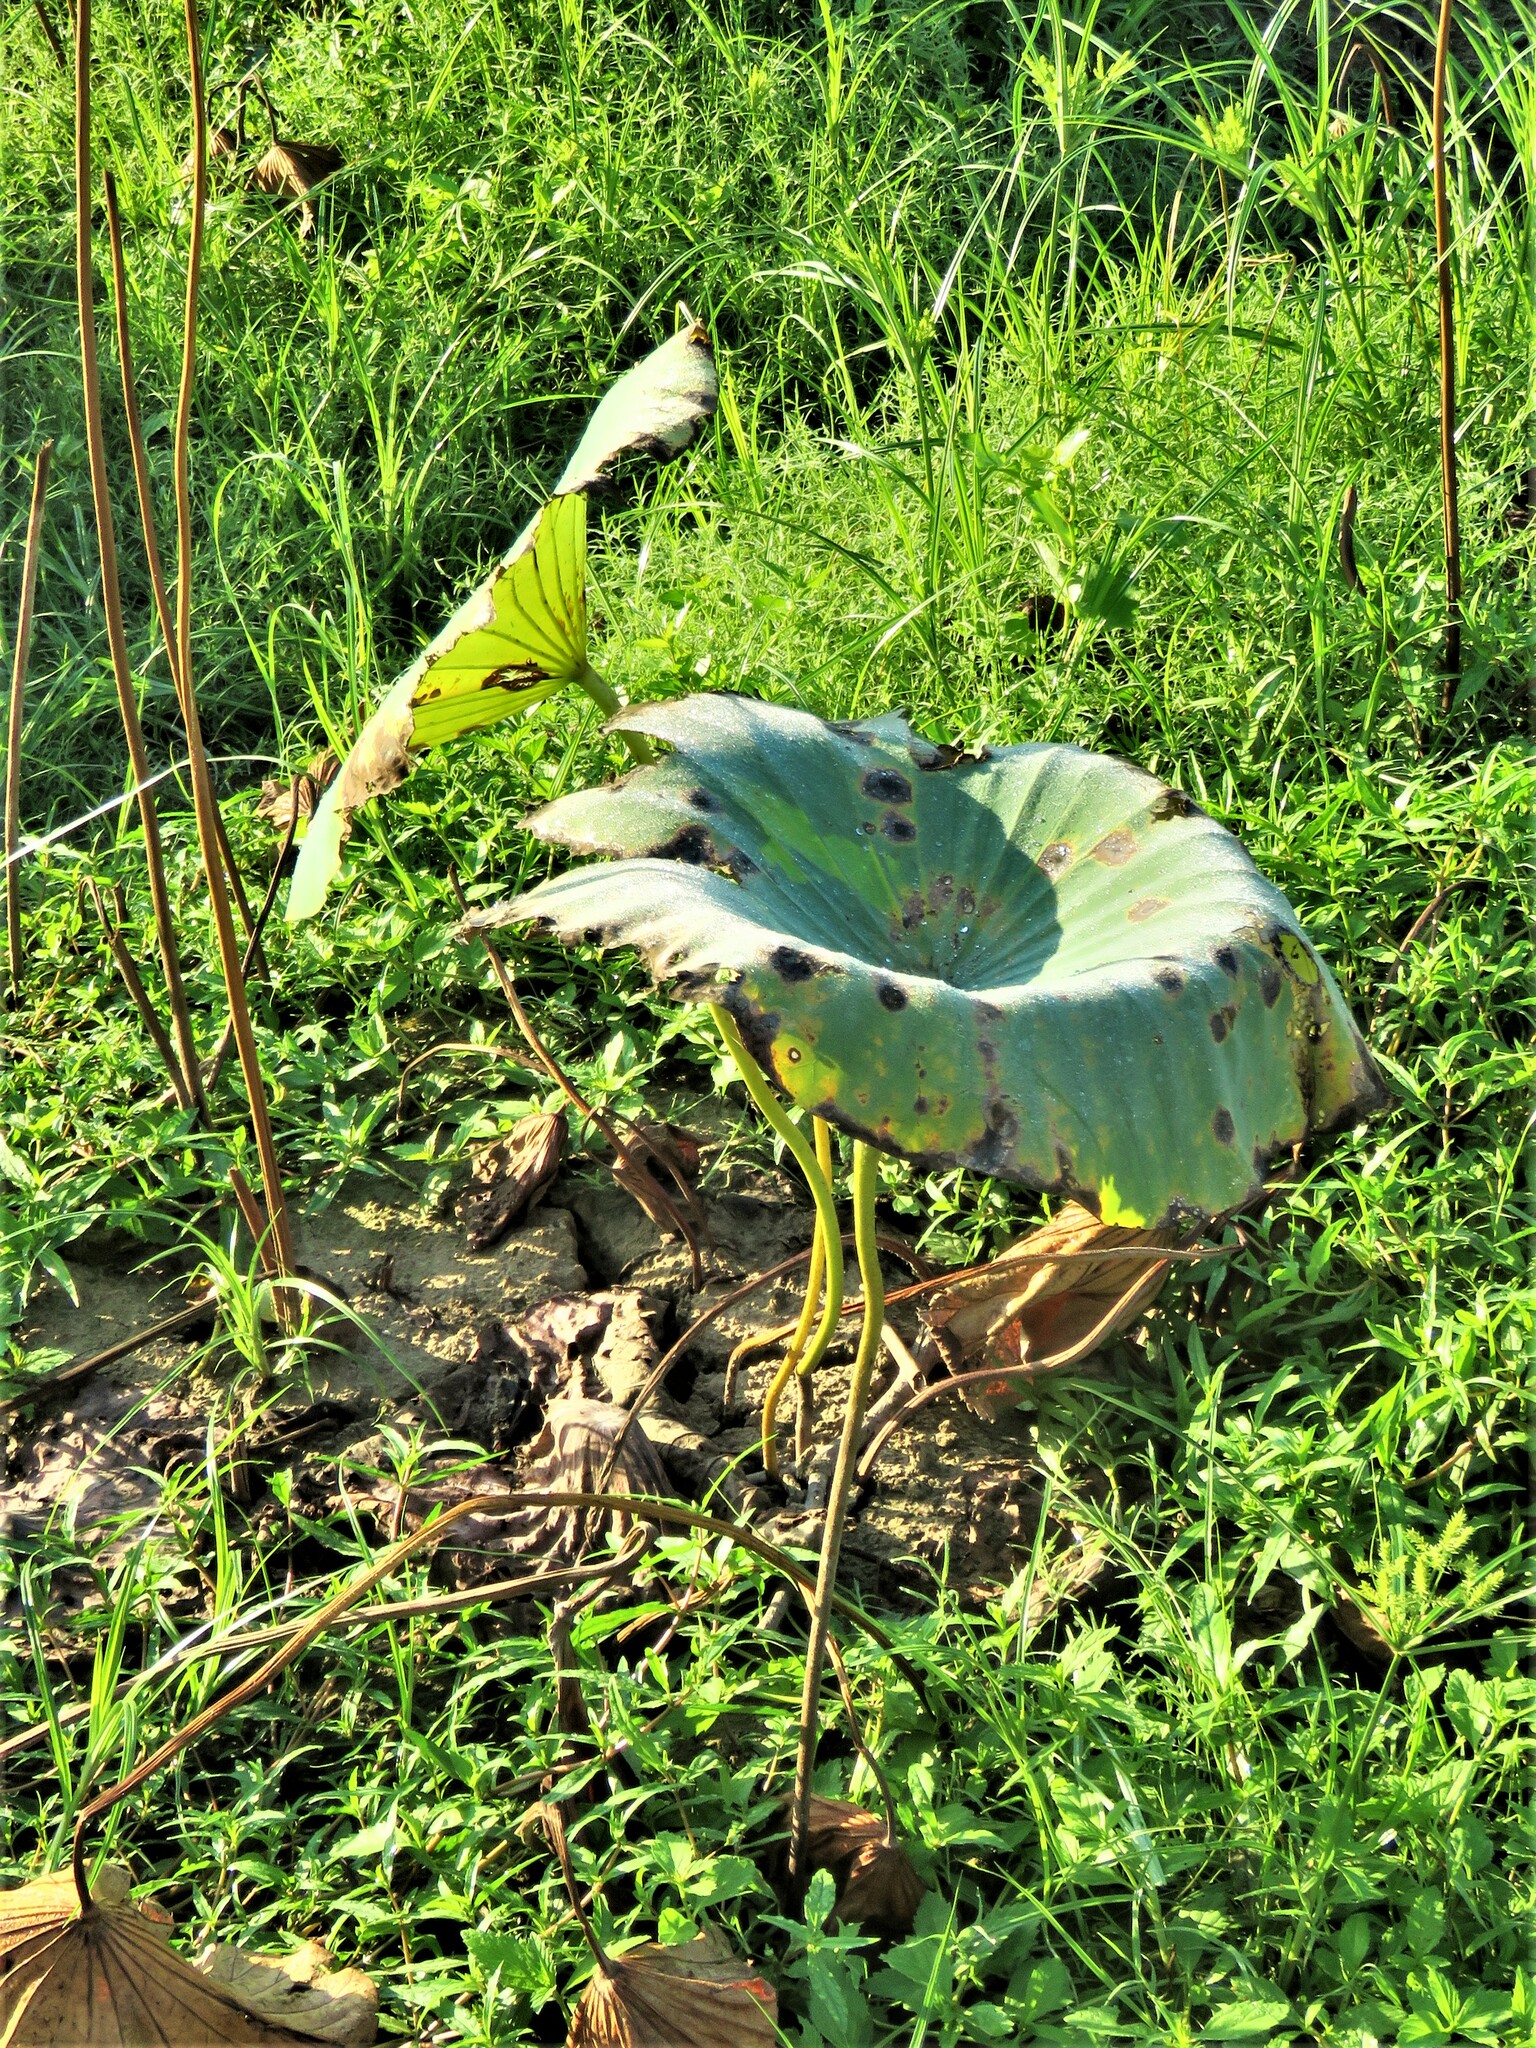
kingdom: Plantae
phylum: Tracheophyta
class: Magnoliopsida
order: Proteales
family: Nelumbonaceae
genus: Nelumbo
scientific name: Nelumbo lutea
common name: American lotus
